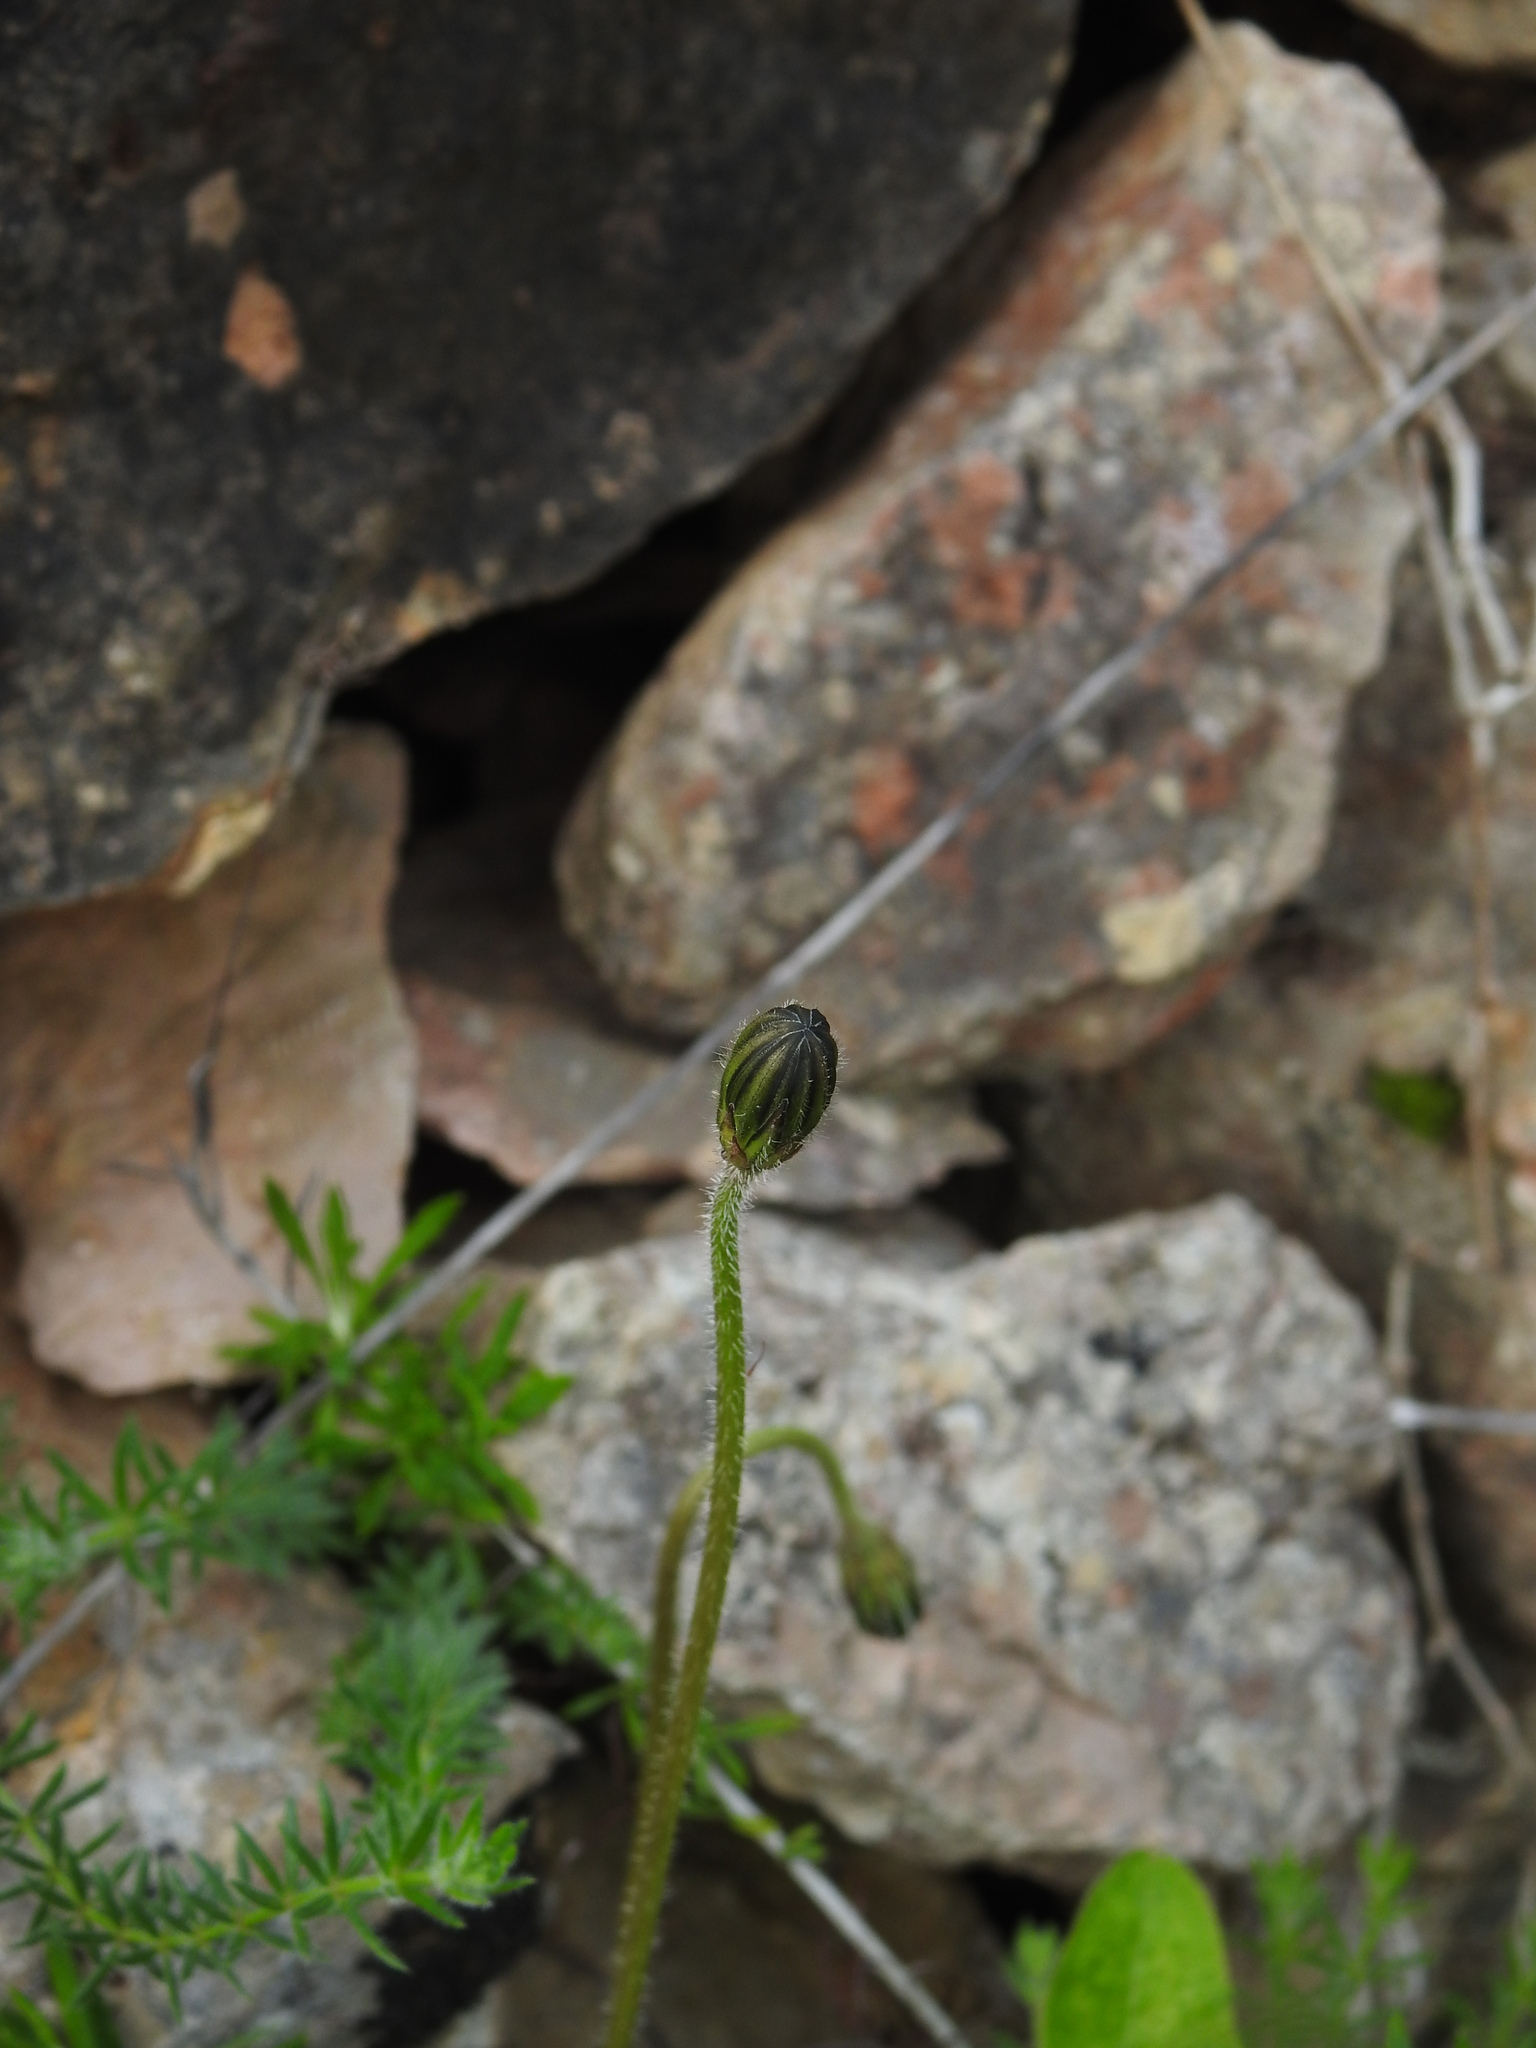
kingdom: Plantae
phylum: Tracheophyta
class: Magnoliopsida
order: Asterales
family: Asteraceae
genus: Leontodon
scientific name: Leontodon tuberosus
